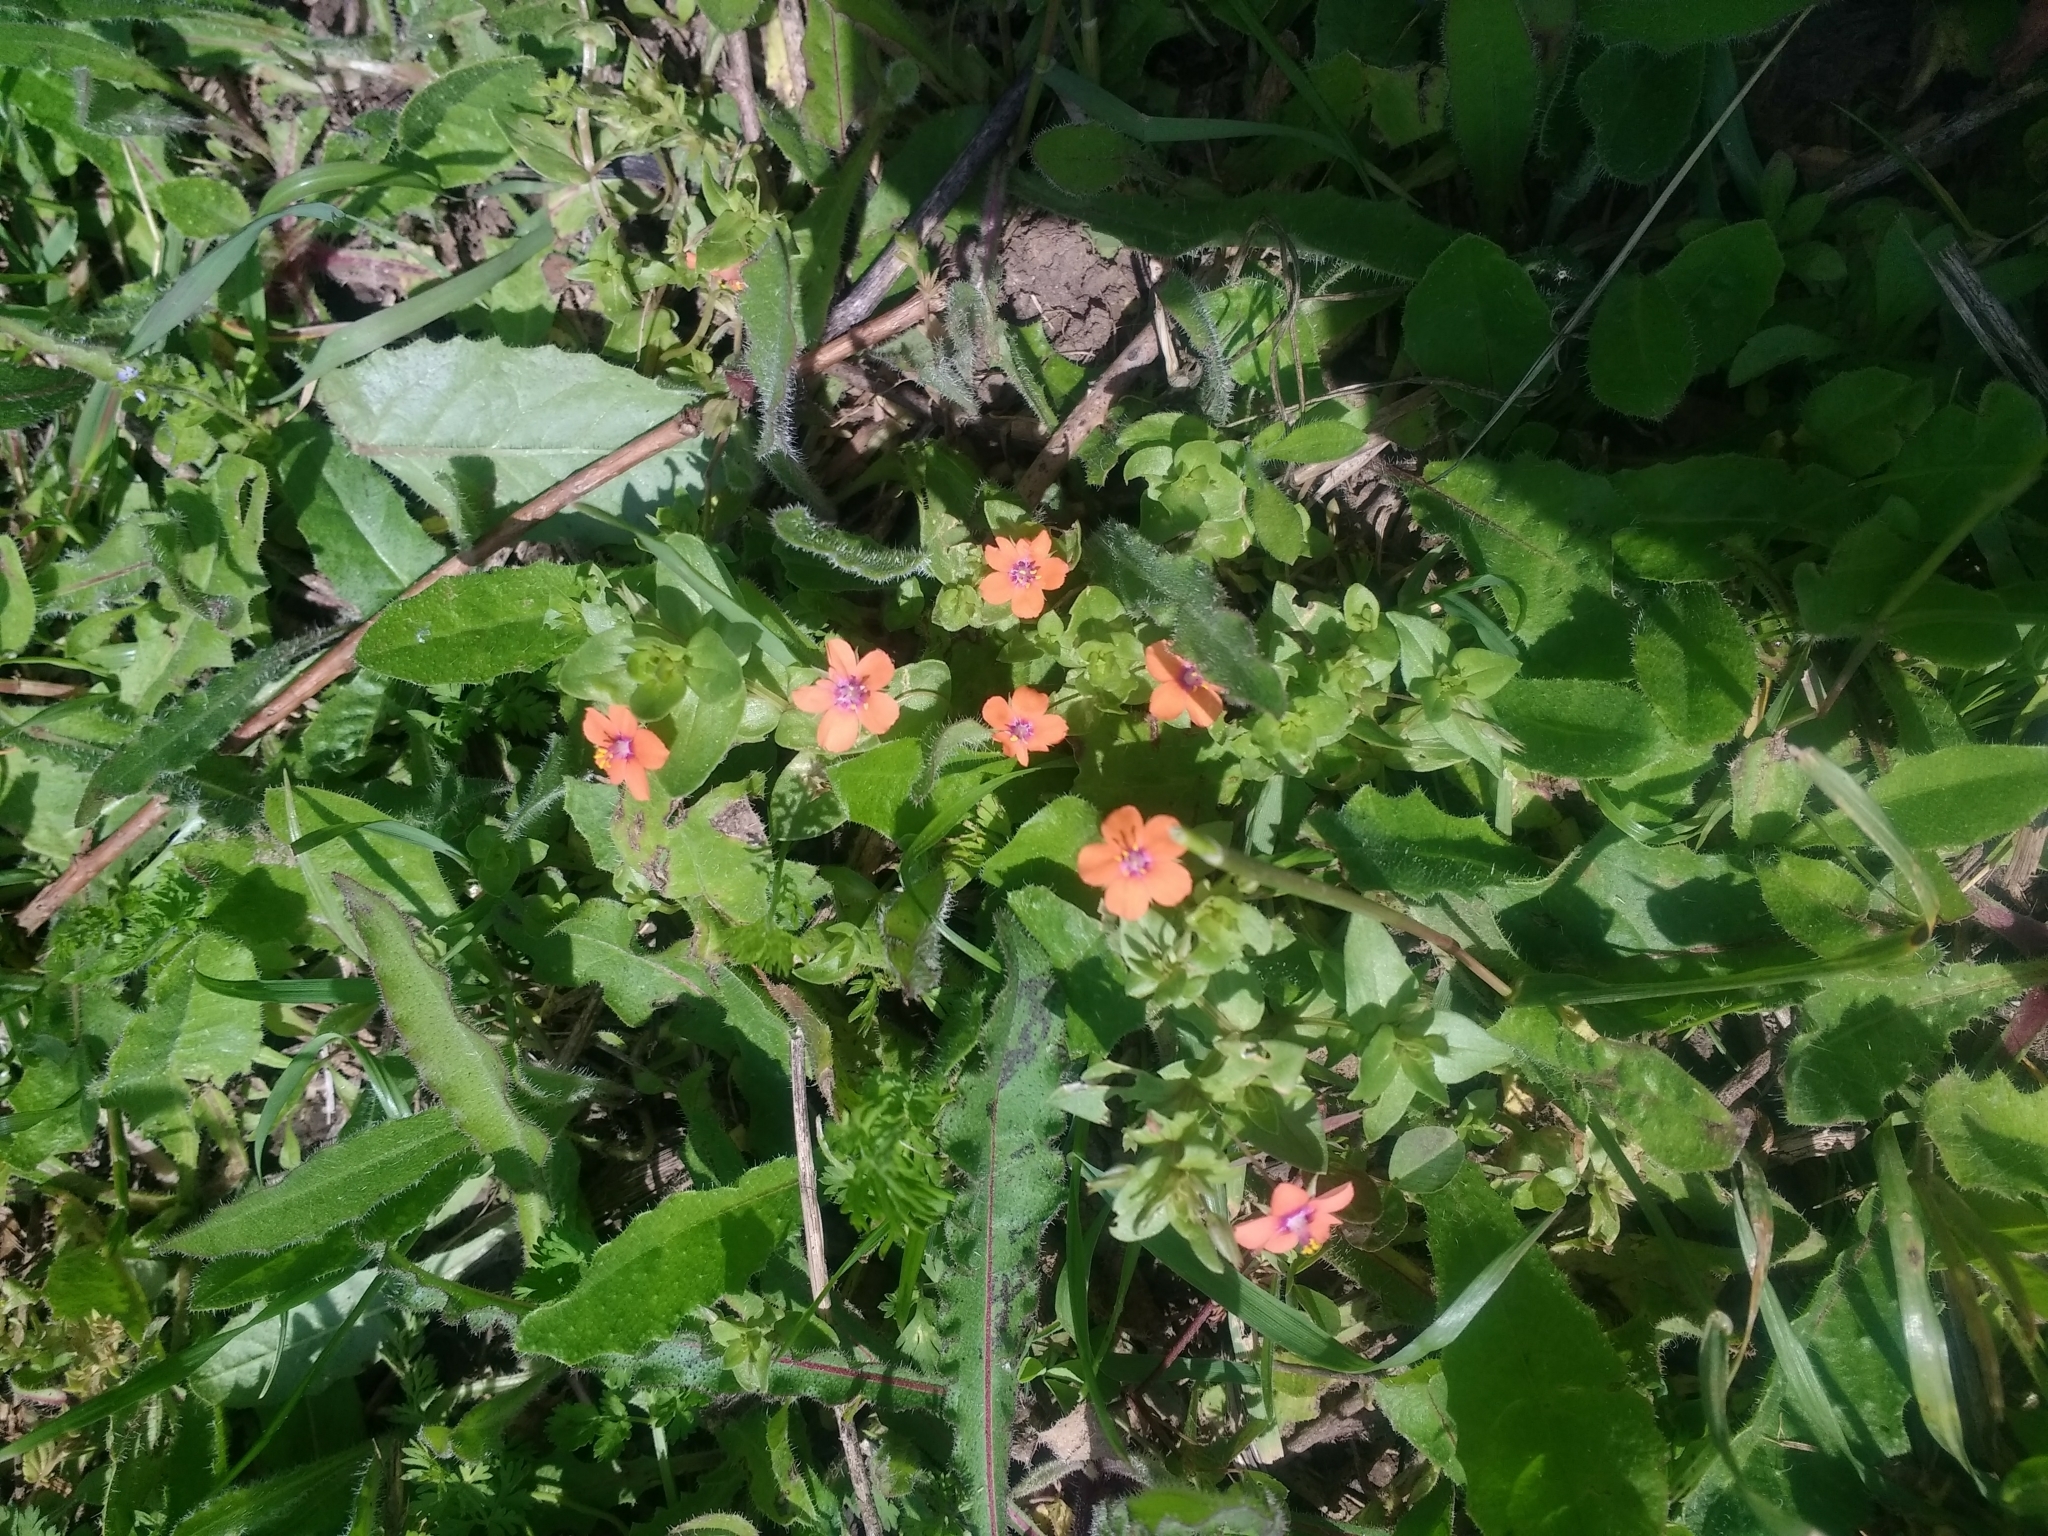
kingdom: Plantae
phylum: Tracheophyta
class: Magnoliopsida
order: Ericales
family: Primulaceae
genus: Lysimachia
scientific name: Lysimachia arvensis
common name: Scarlet pimpernel
